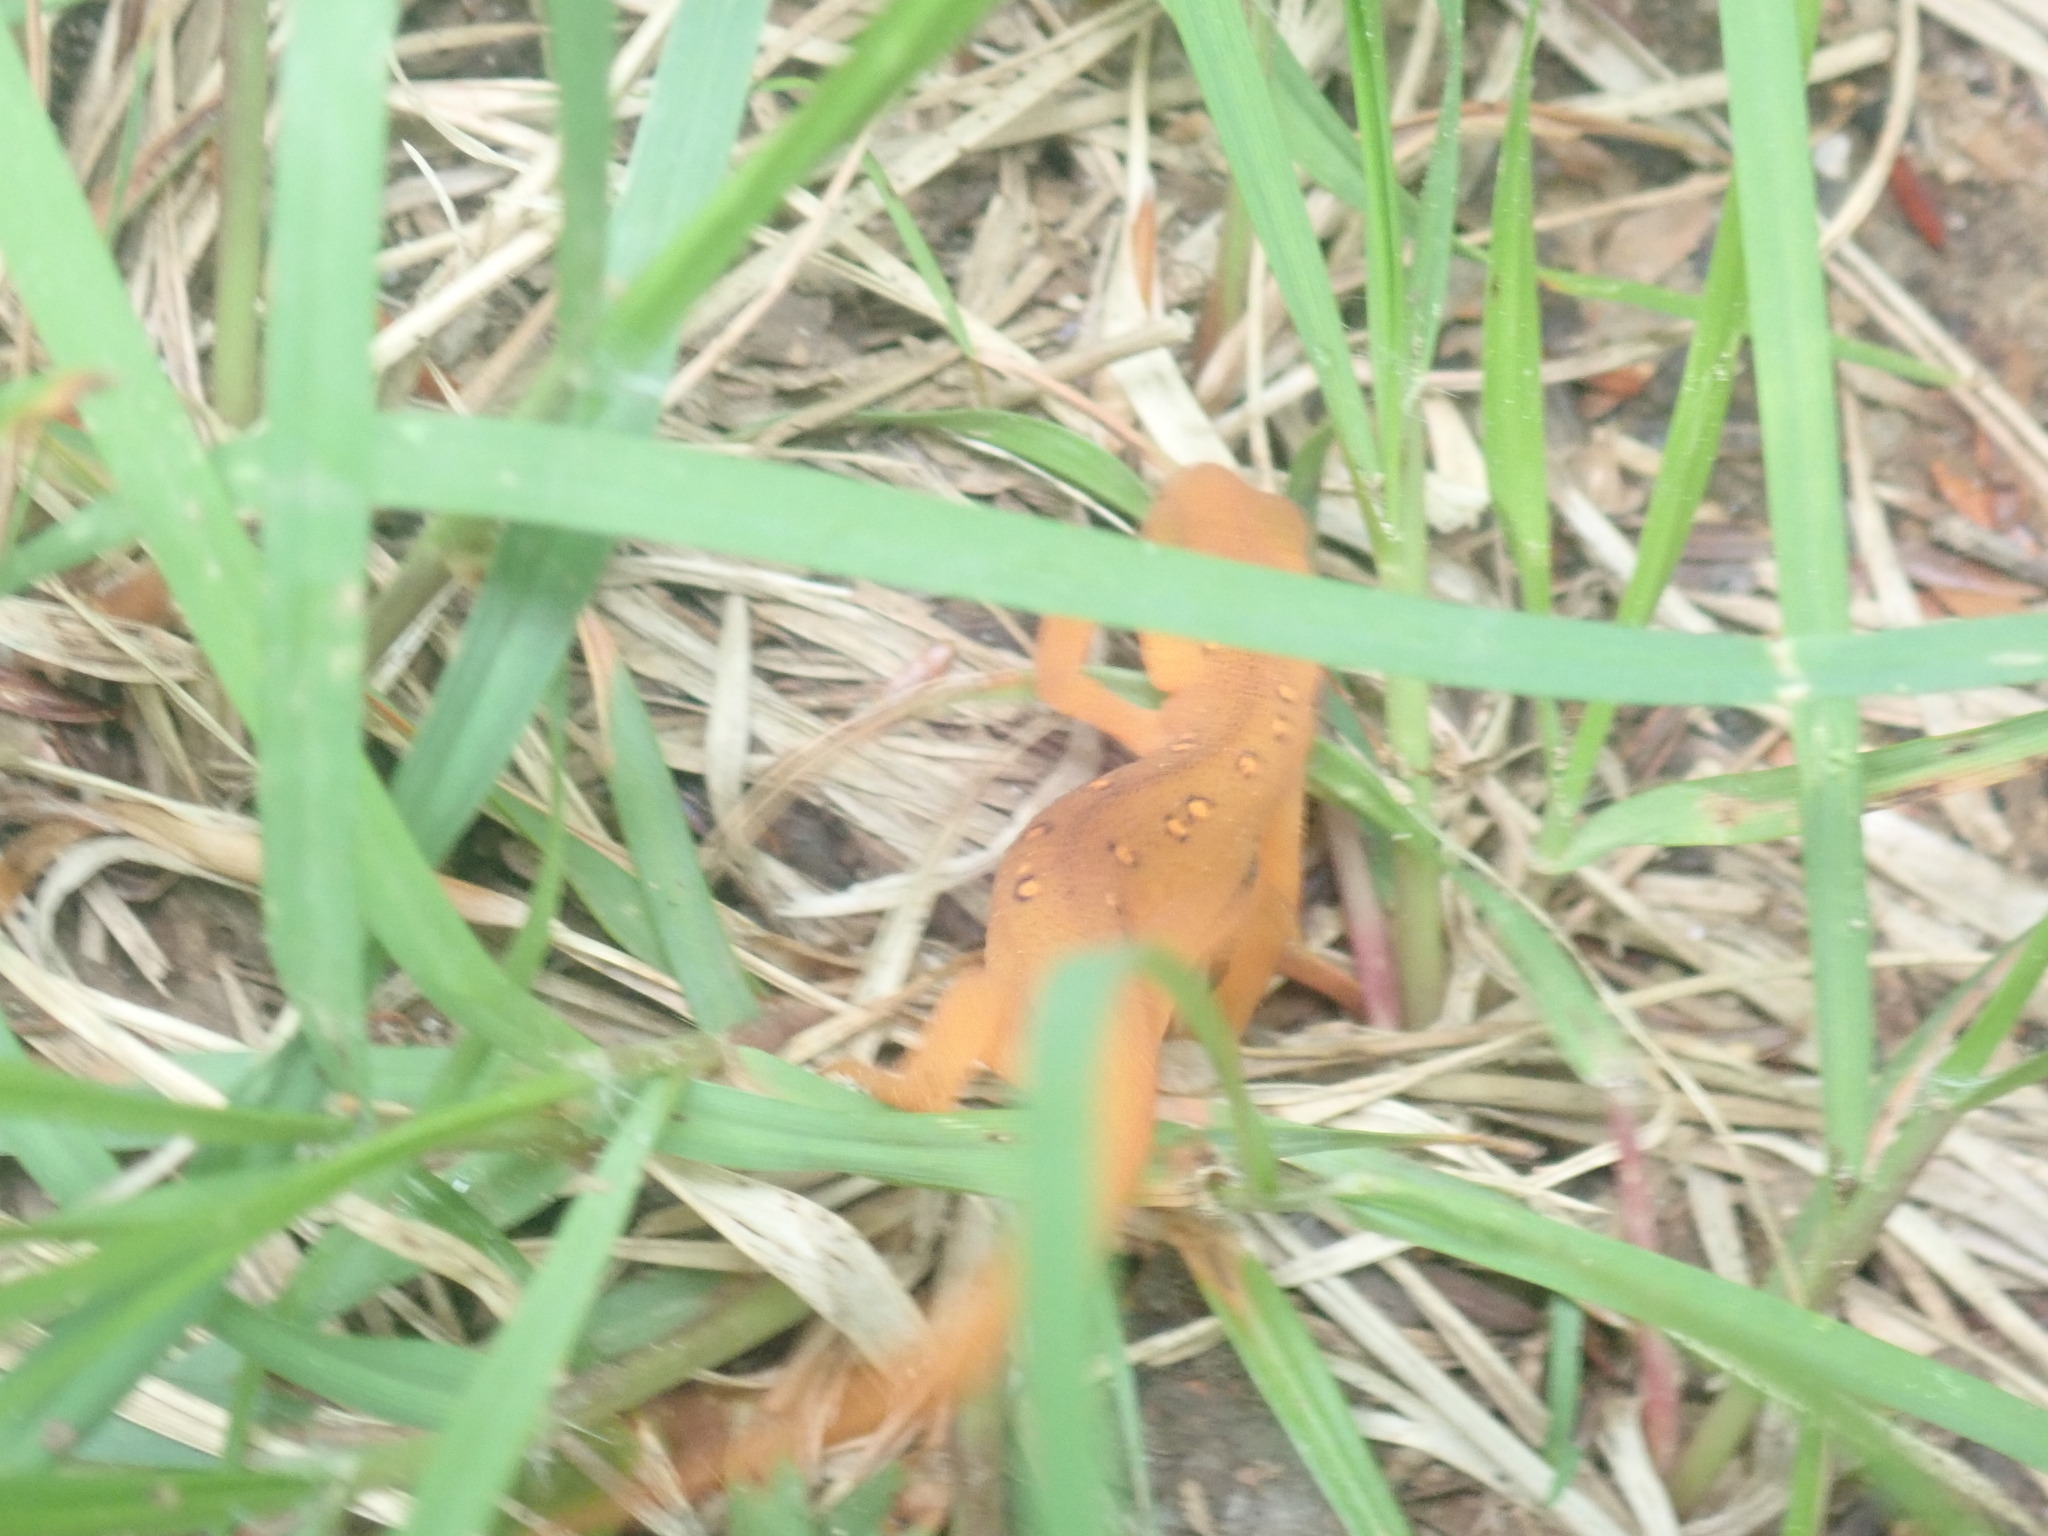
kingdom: Animalia
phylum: Chordata
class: Amphibia
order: Caudata
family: Salamandridae
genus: Notophthalmus
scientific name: Notophthalmus viridescens
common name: Eastern newt
